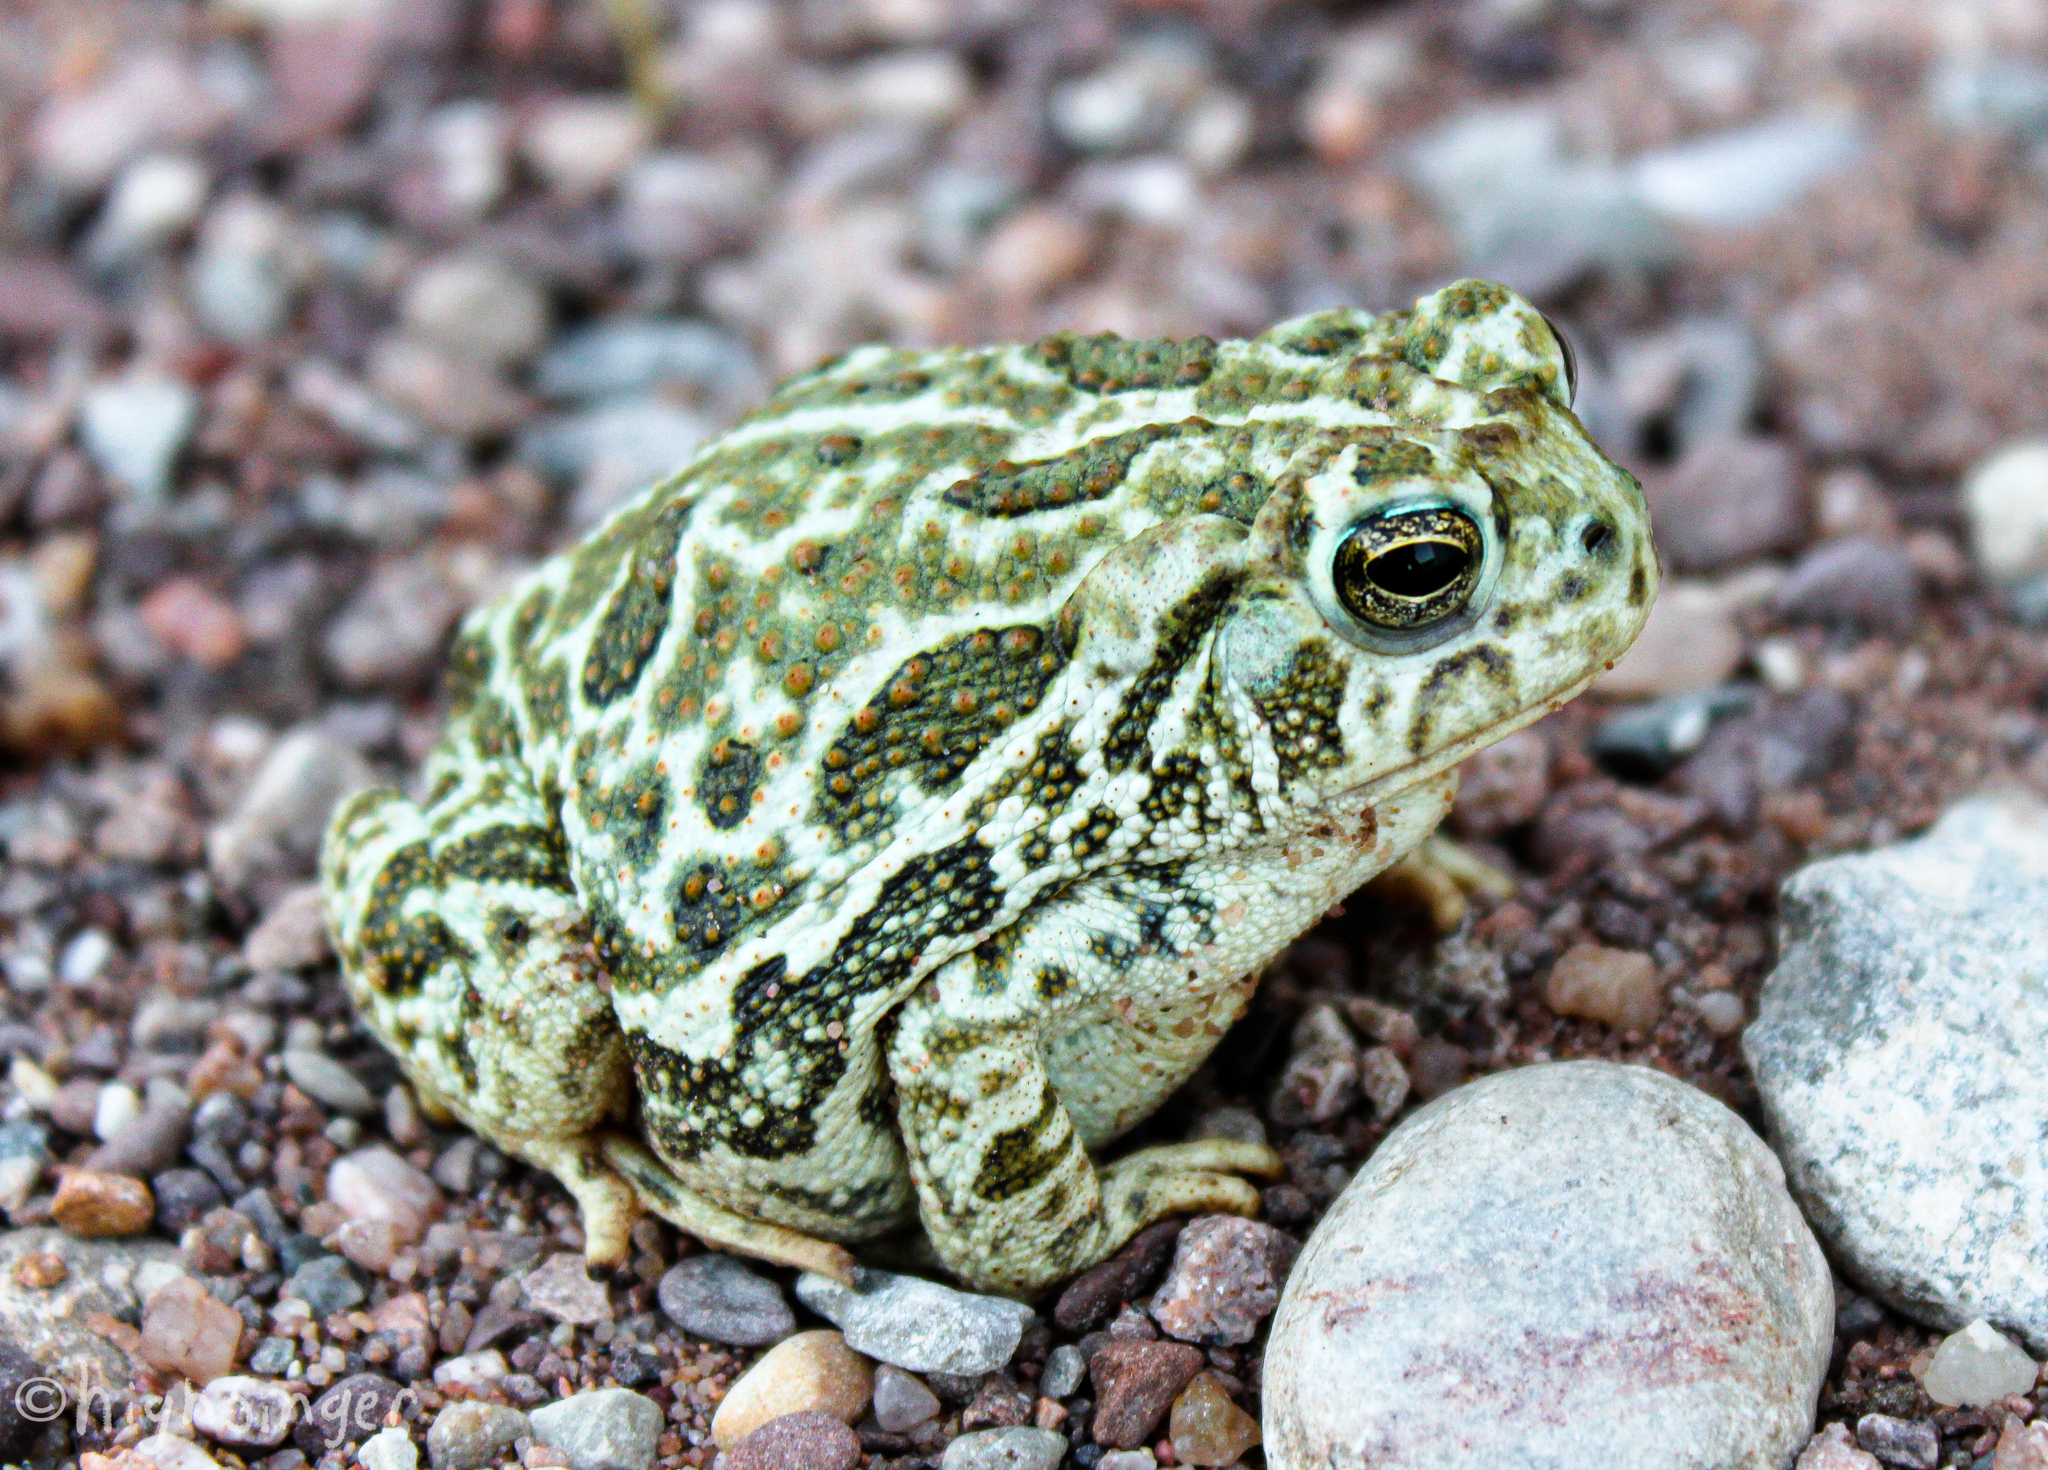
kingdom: Animalia
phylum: Chordata
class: Amphibia
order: Anura
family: Bufonidae
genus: Anaxyrus
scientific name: Anaxyrus cognatus
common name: Great plains toad
